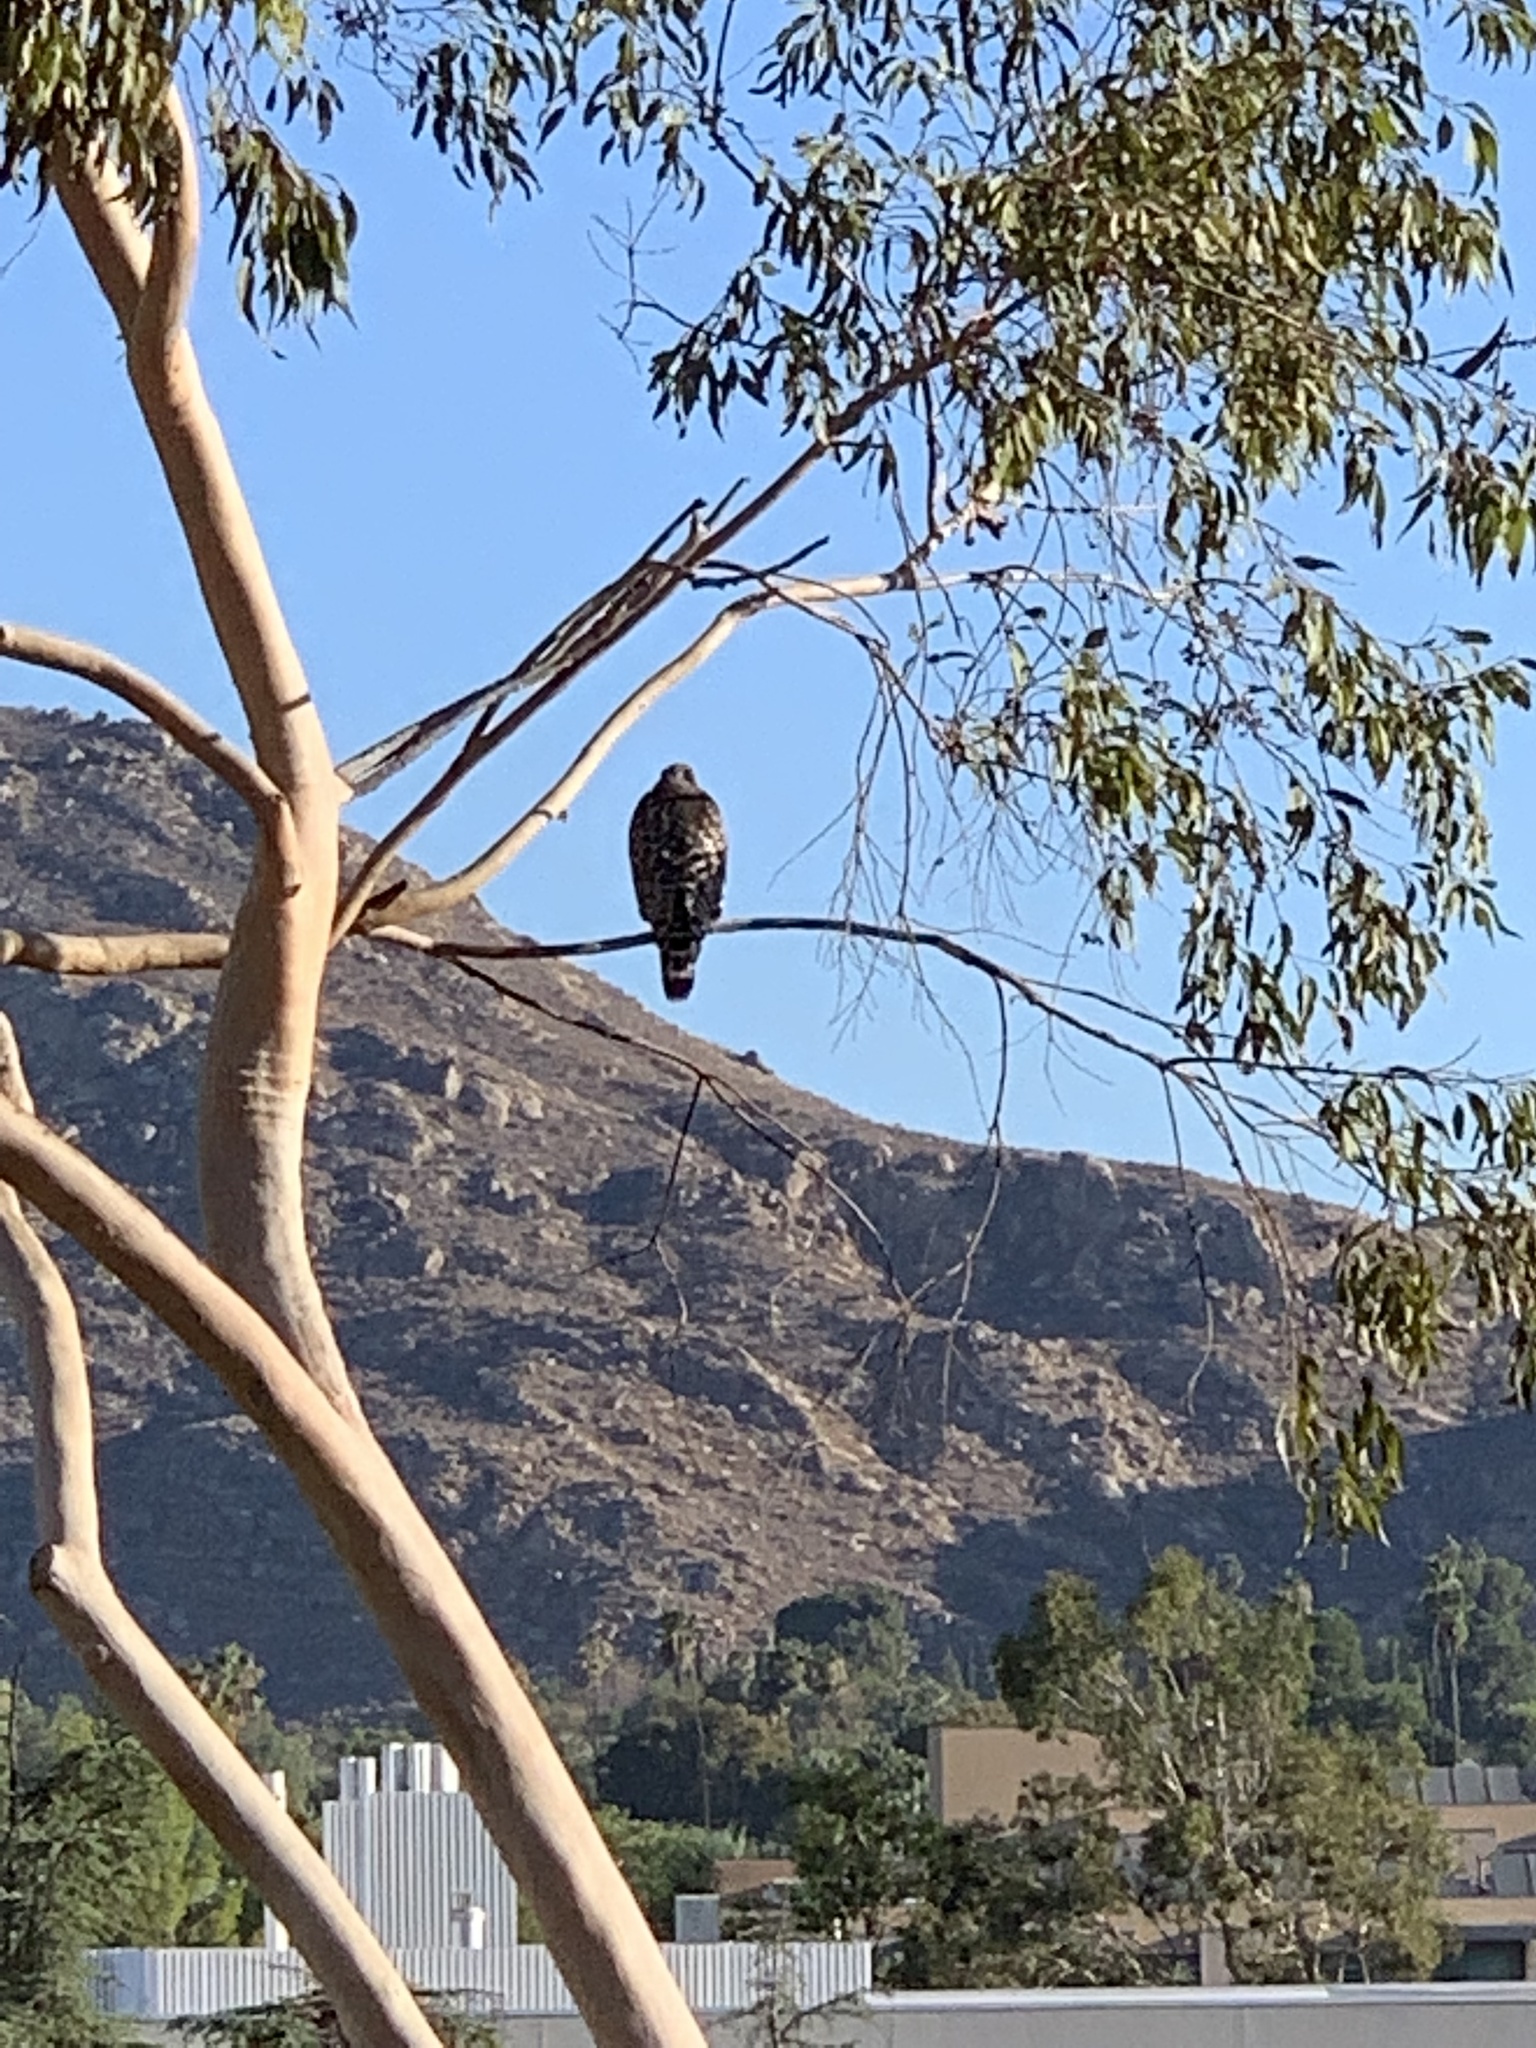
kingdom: Animalia
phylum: Chordata
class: Aves
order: Accipitriformes
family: Accipitridae
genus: Buteo
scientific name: Buteo lineatus
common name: Red-shouldered hawk
